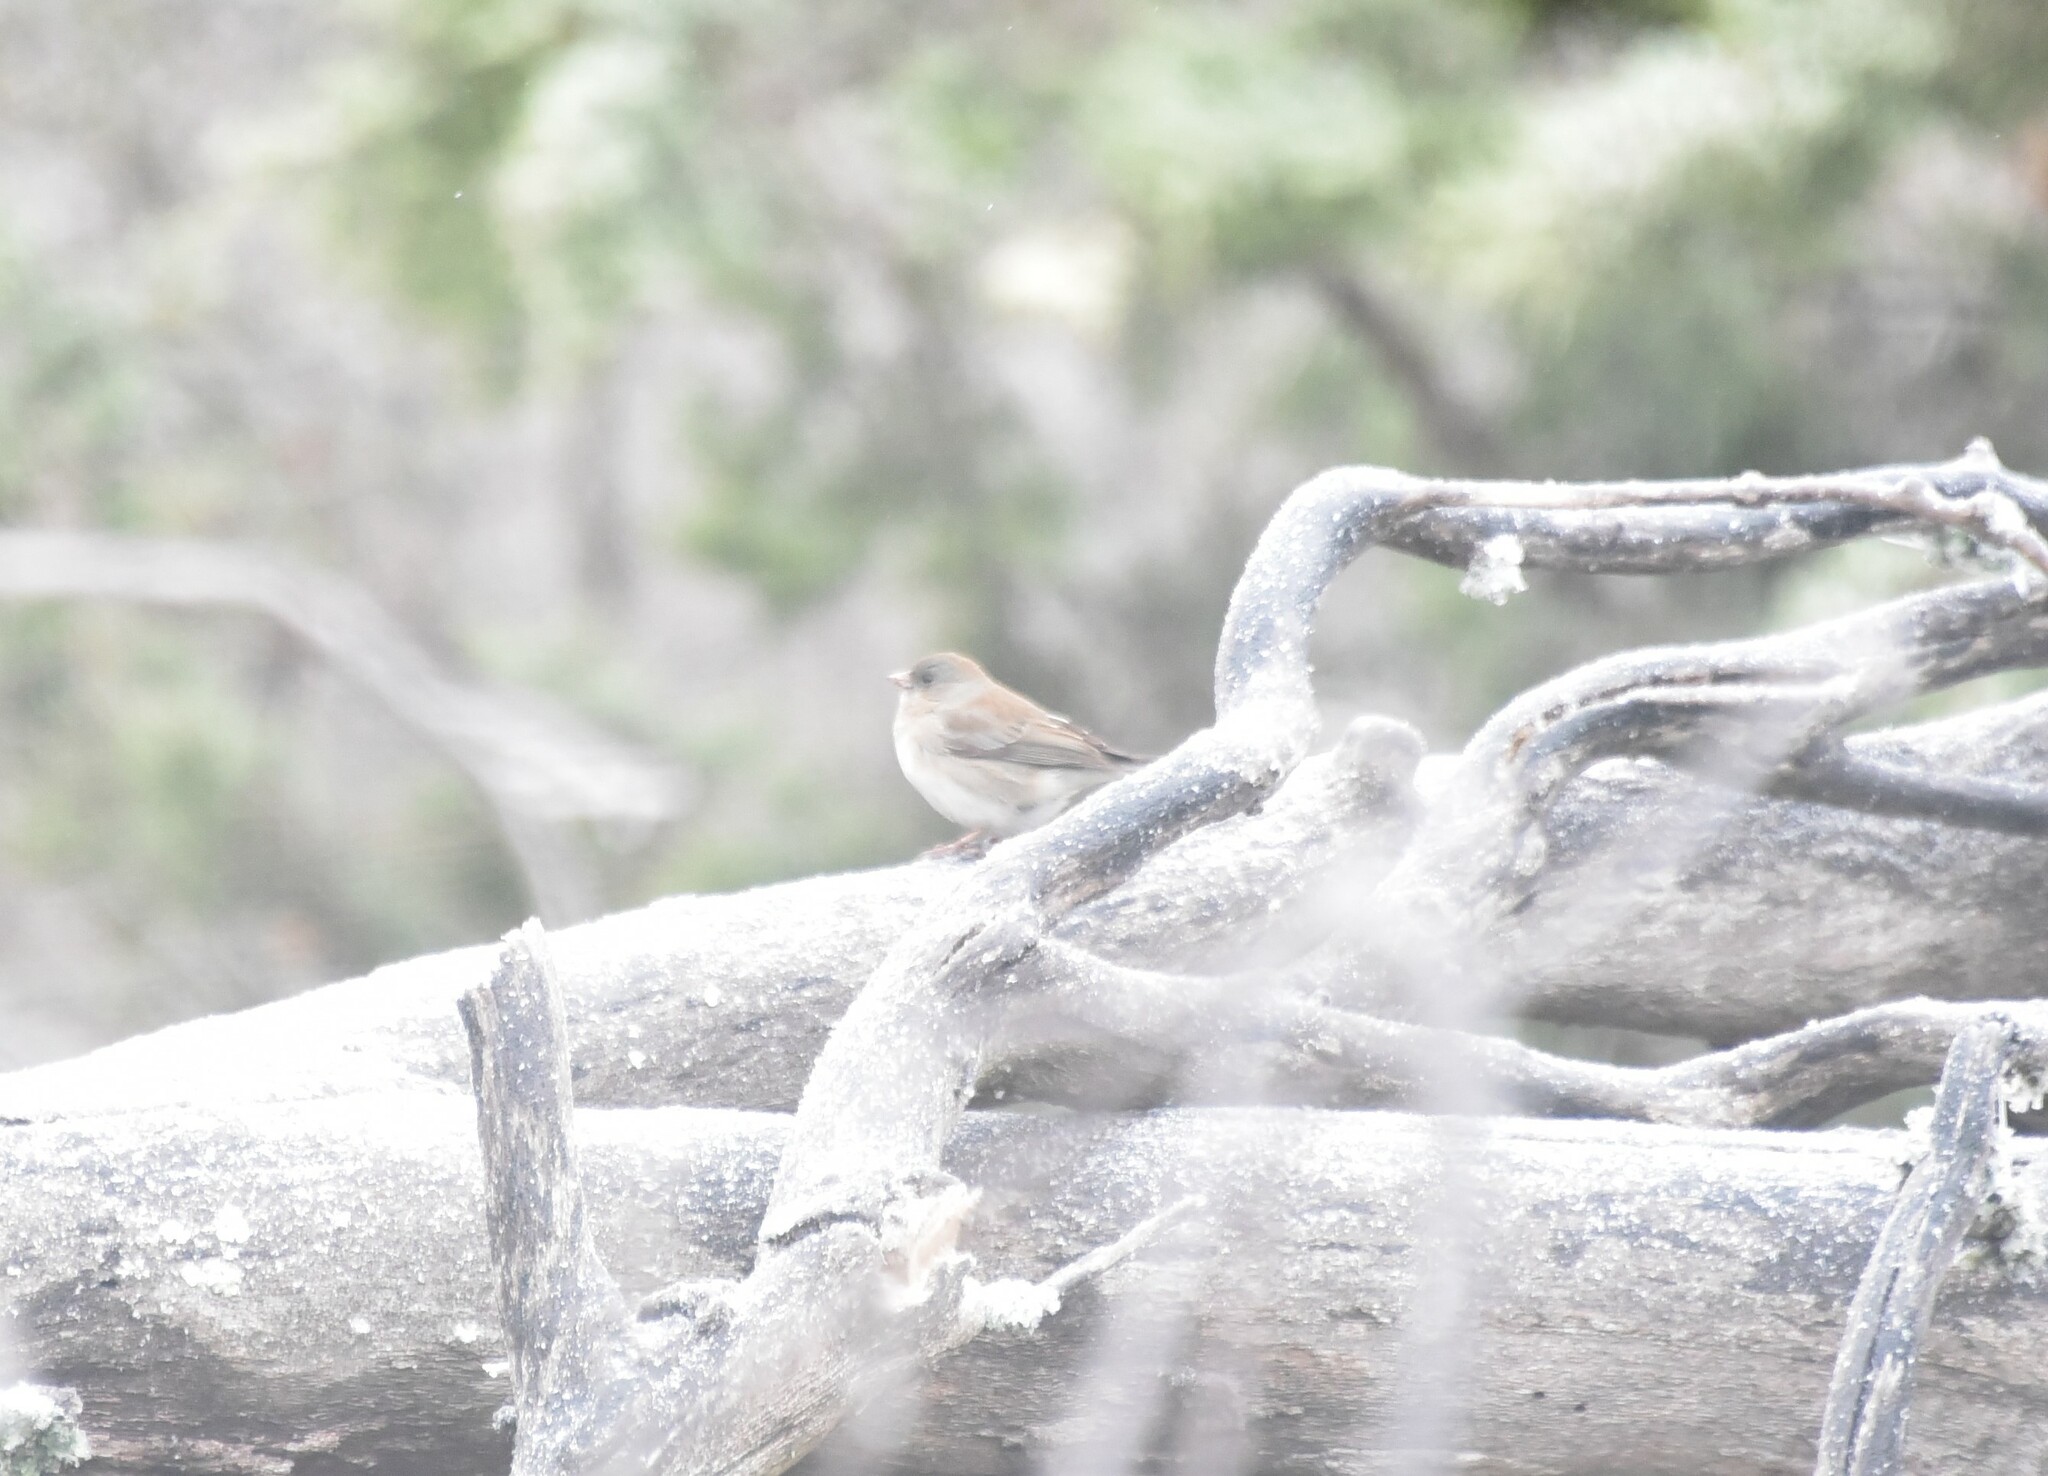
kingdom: Animalia
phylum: Chordata
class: Aves
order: Passeriformes
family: Passerellidae
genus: Junco
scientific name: Junco hyemalis
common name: Dark-eyed junco
